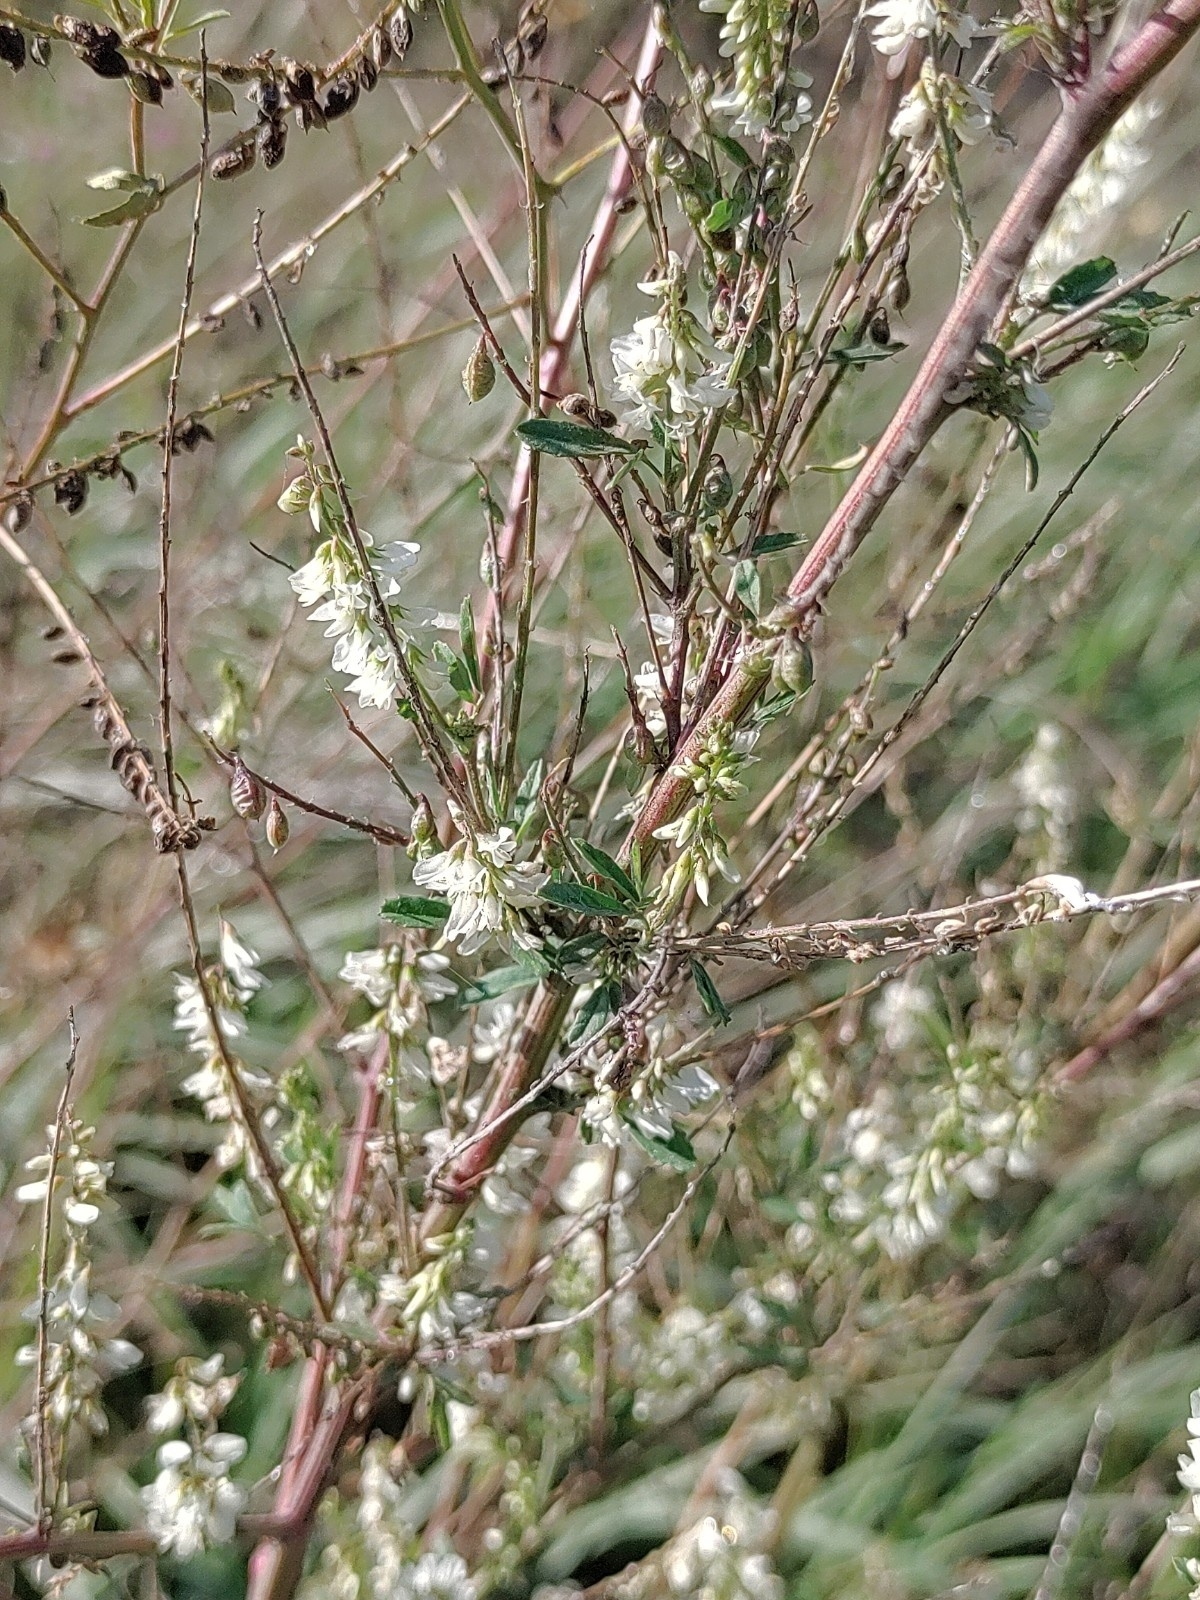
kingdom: Plantae
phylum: Tracheophyta
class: Magnoliopsida
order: Fabales
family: Fabaceae
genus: Melilotus
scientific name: Melilotus albus
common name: White melilot
